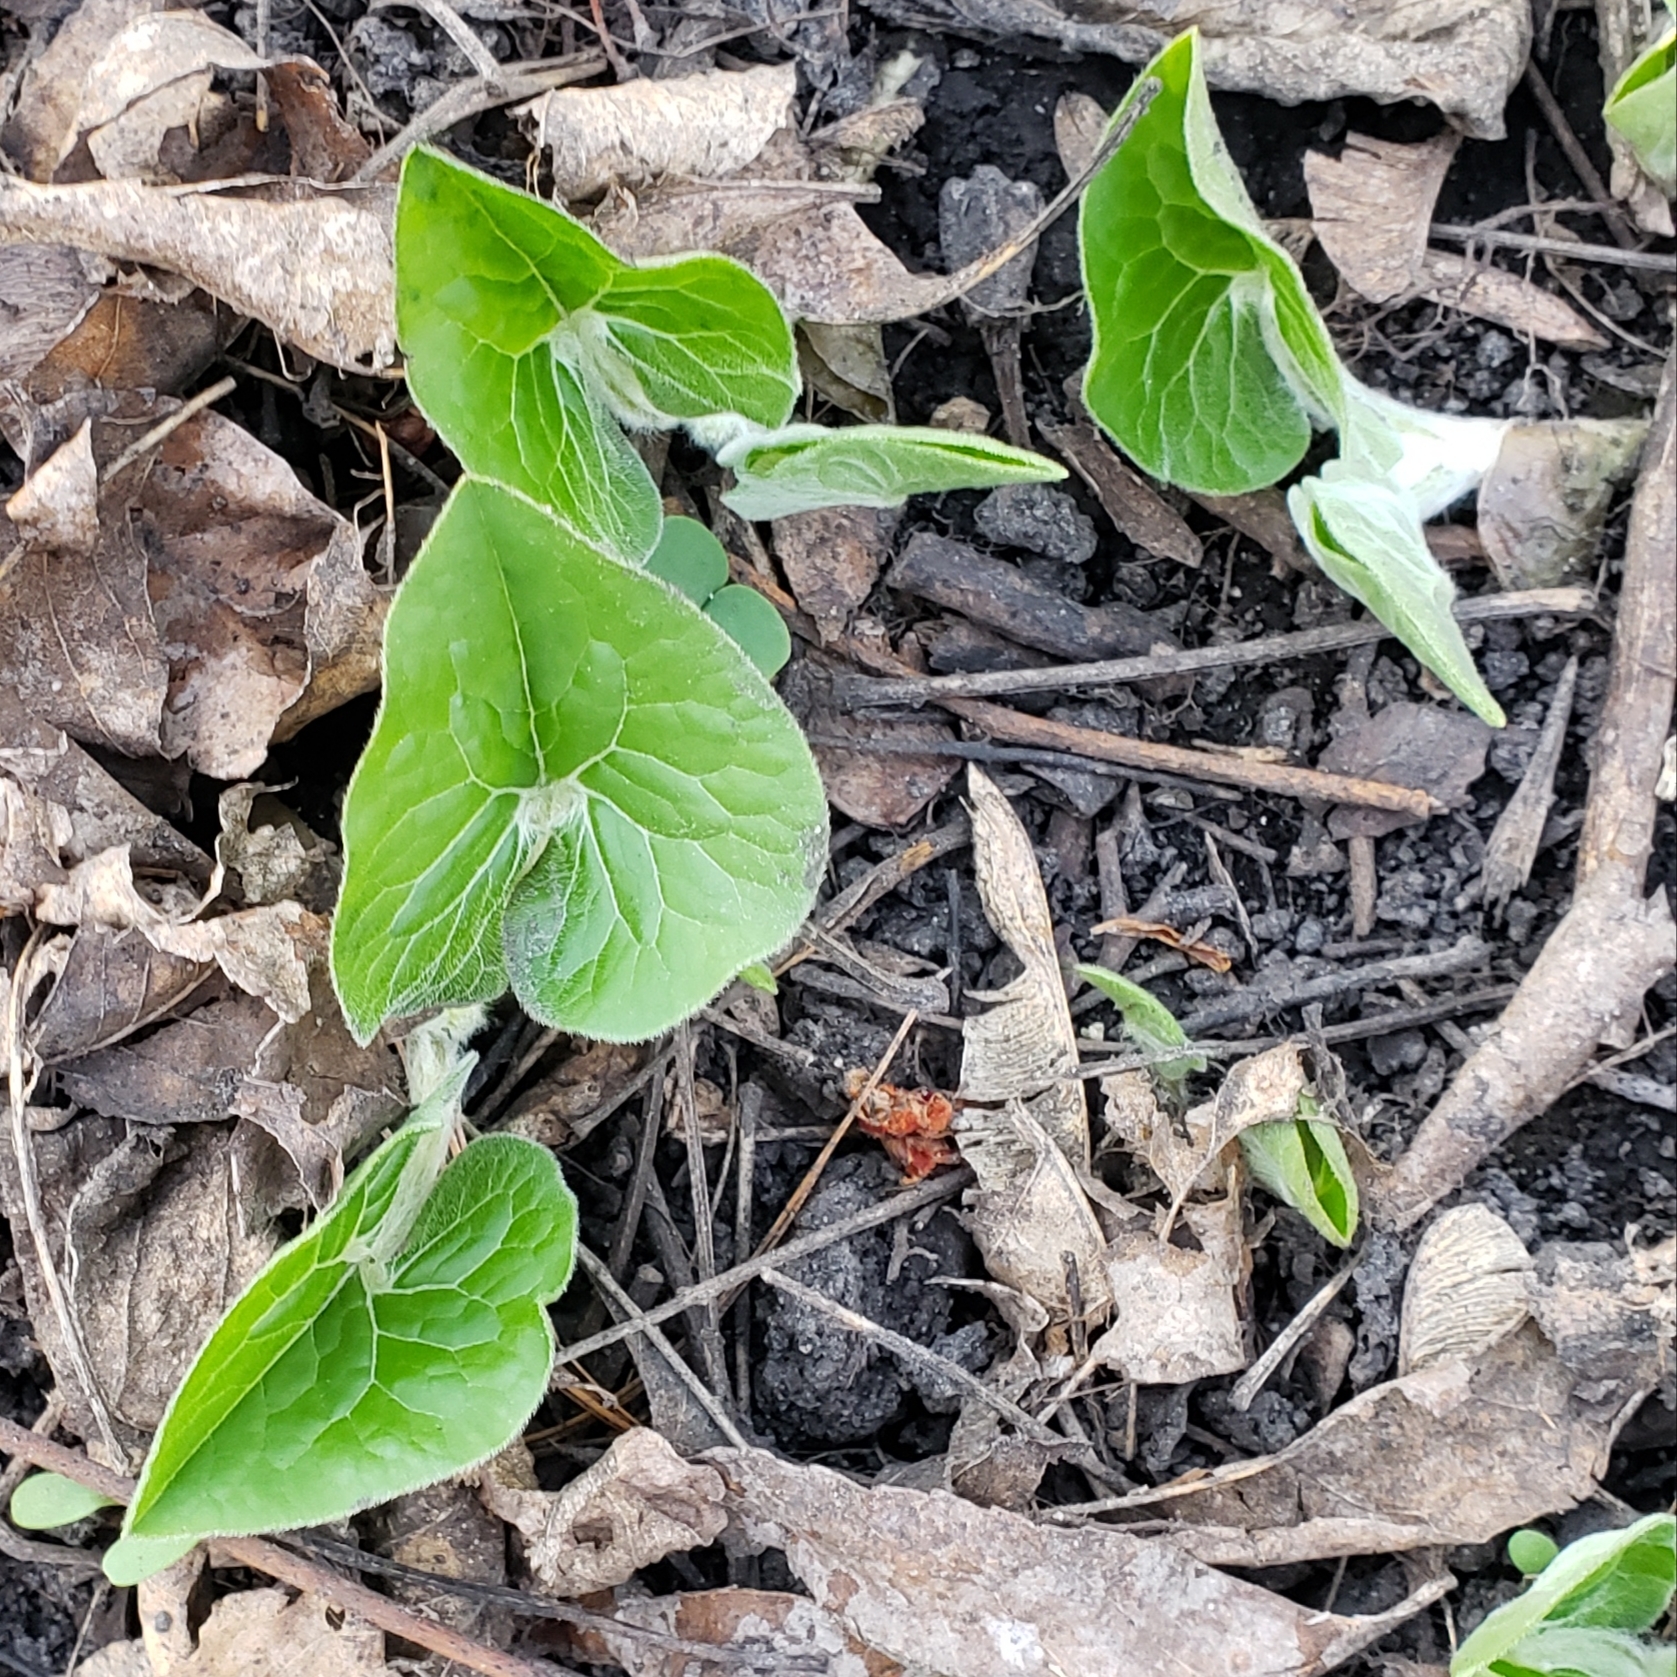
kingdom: Plantae
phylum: Tracheophyta
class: Magnoliopsida
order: Piperales
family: Aristolochiaceae
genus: Asarum
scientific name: Asarum canadense
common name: Wild ginger
